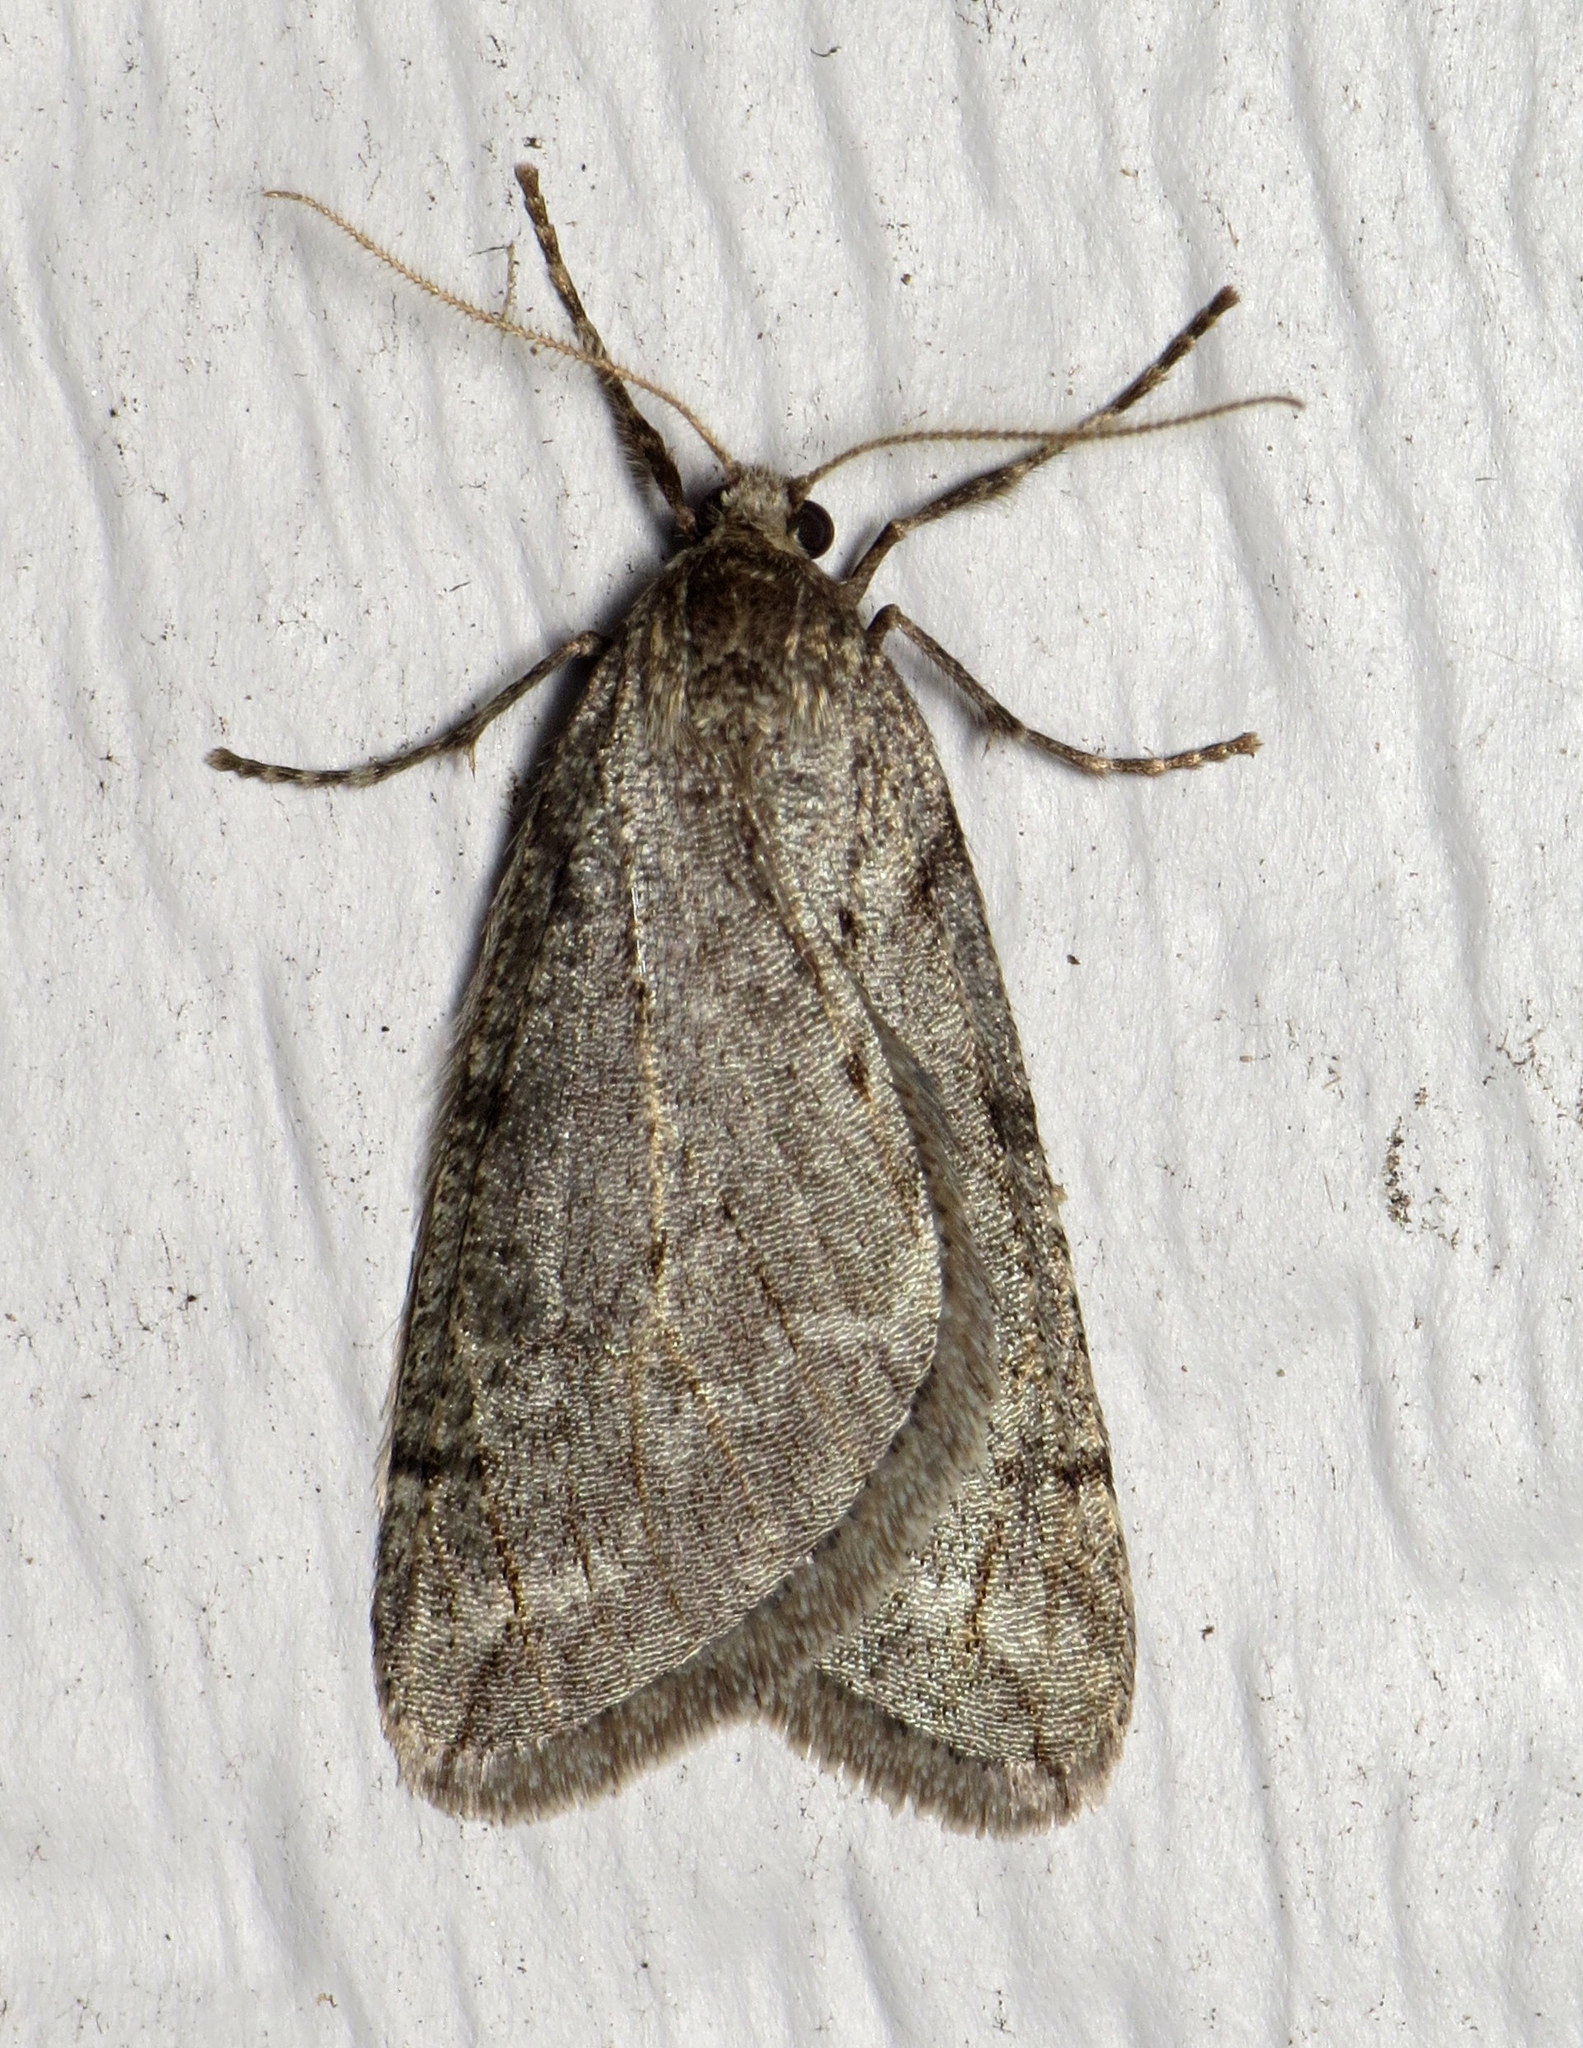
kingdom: Animalia
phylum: Arthropoda
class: Insecta
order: Lepidoptera
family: Geometridae
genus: Paleacrita
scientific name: Paleacrita vernata
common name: Spring cankerworm
